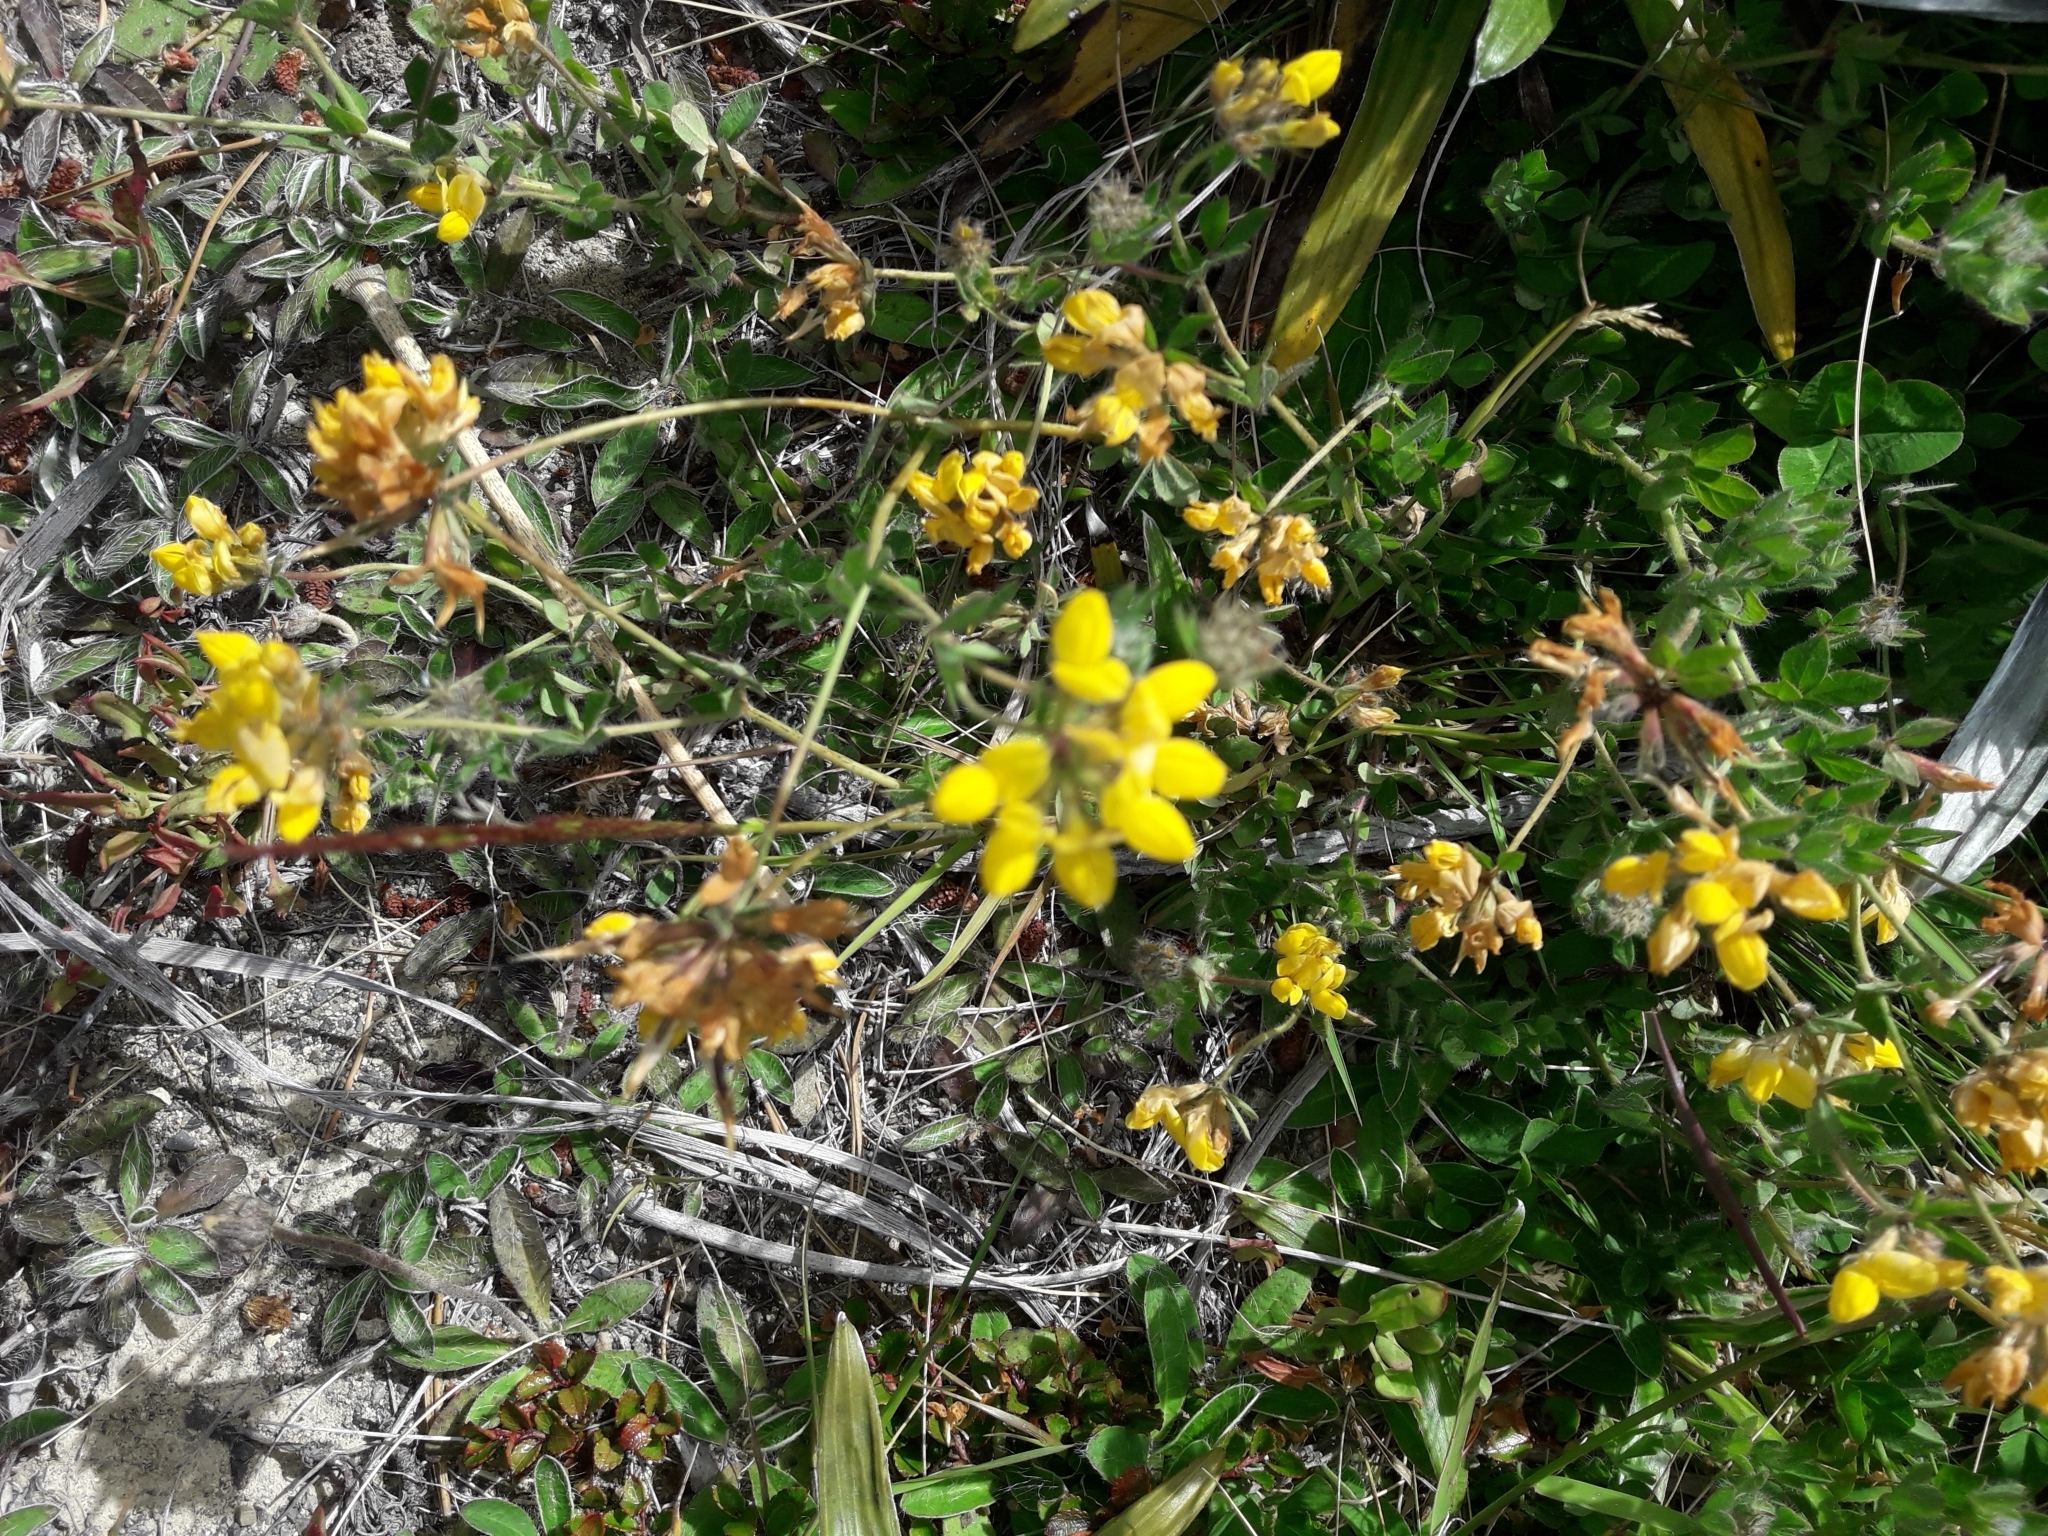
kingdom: Plantae
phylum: Tracheophyta
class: Magnoliopsida
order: Fabales
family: Fabaceae
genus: Lotus
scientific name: Lotus pedunculatus
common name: Greater birdsfoot-trefoil
